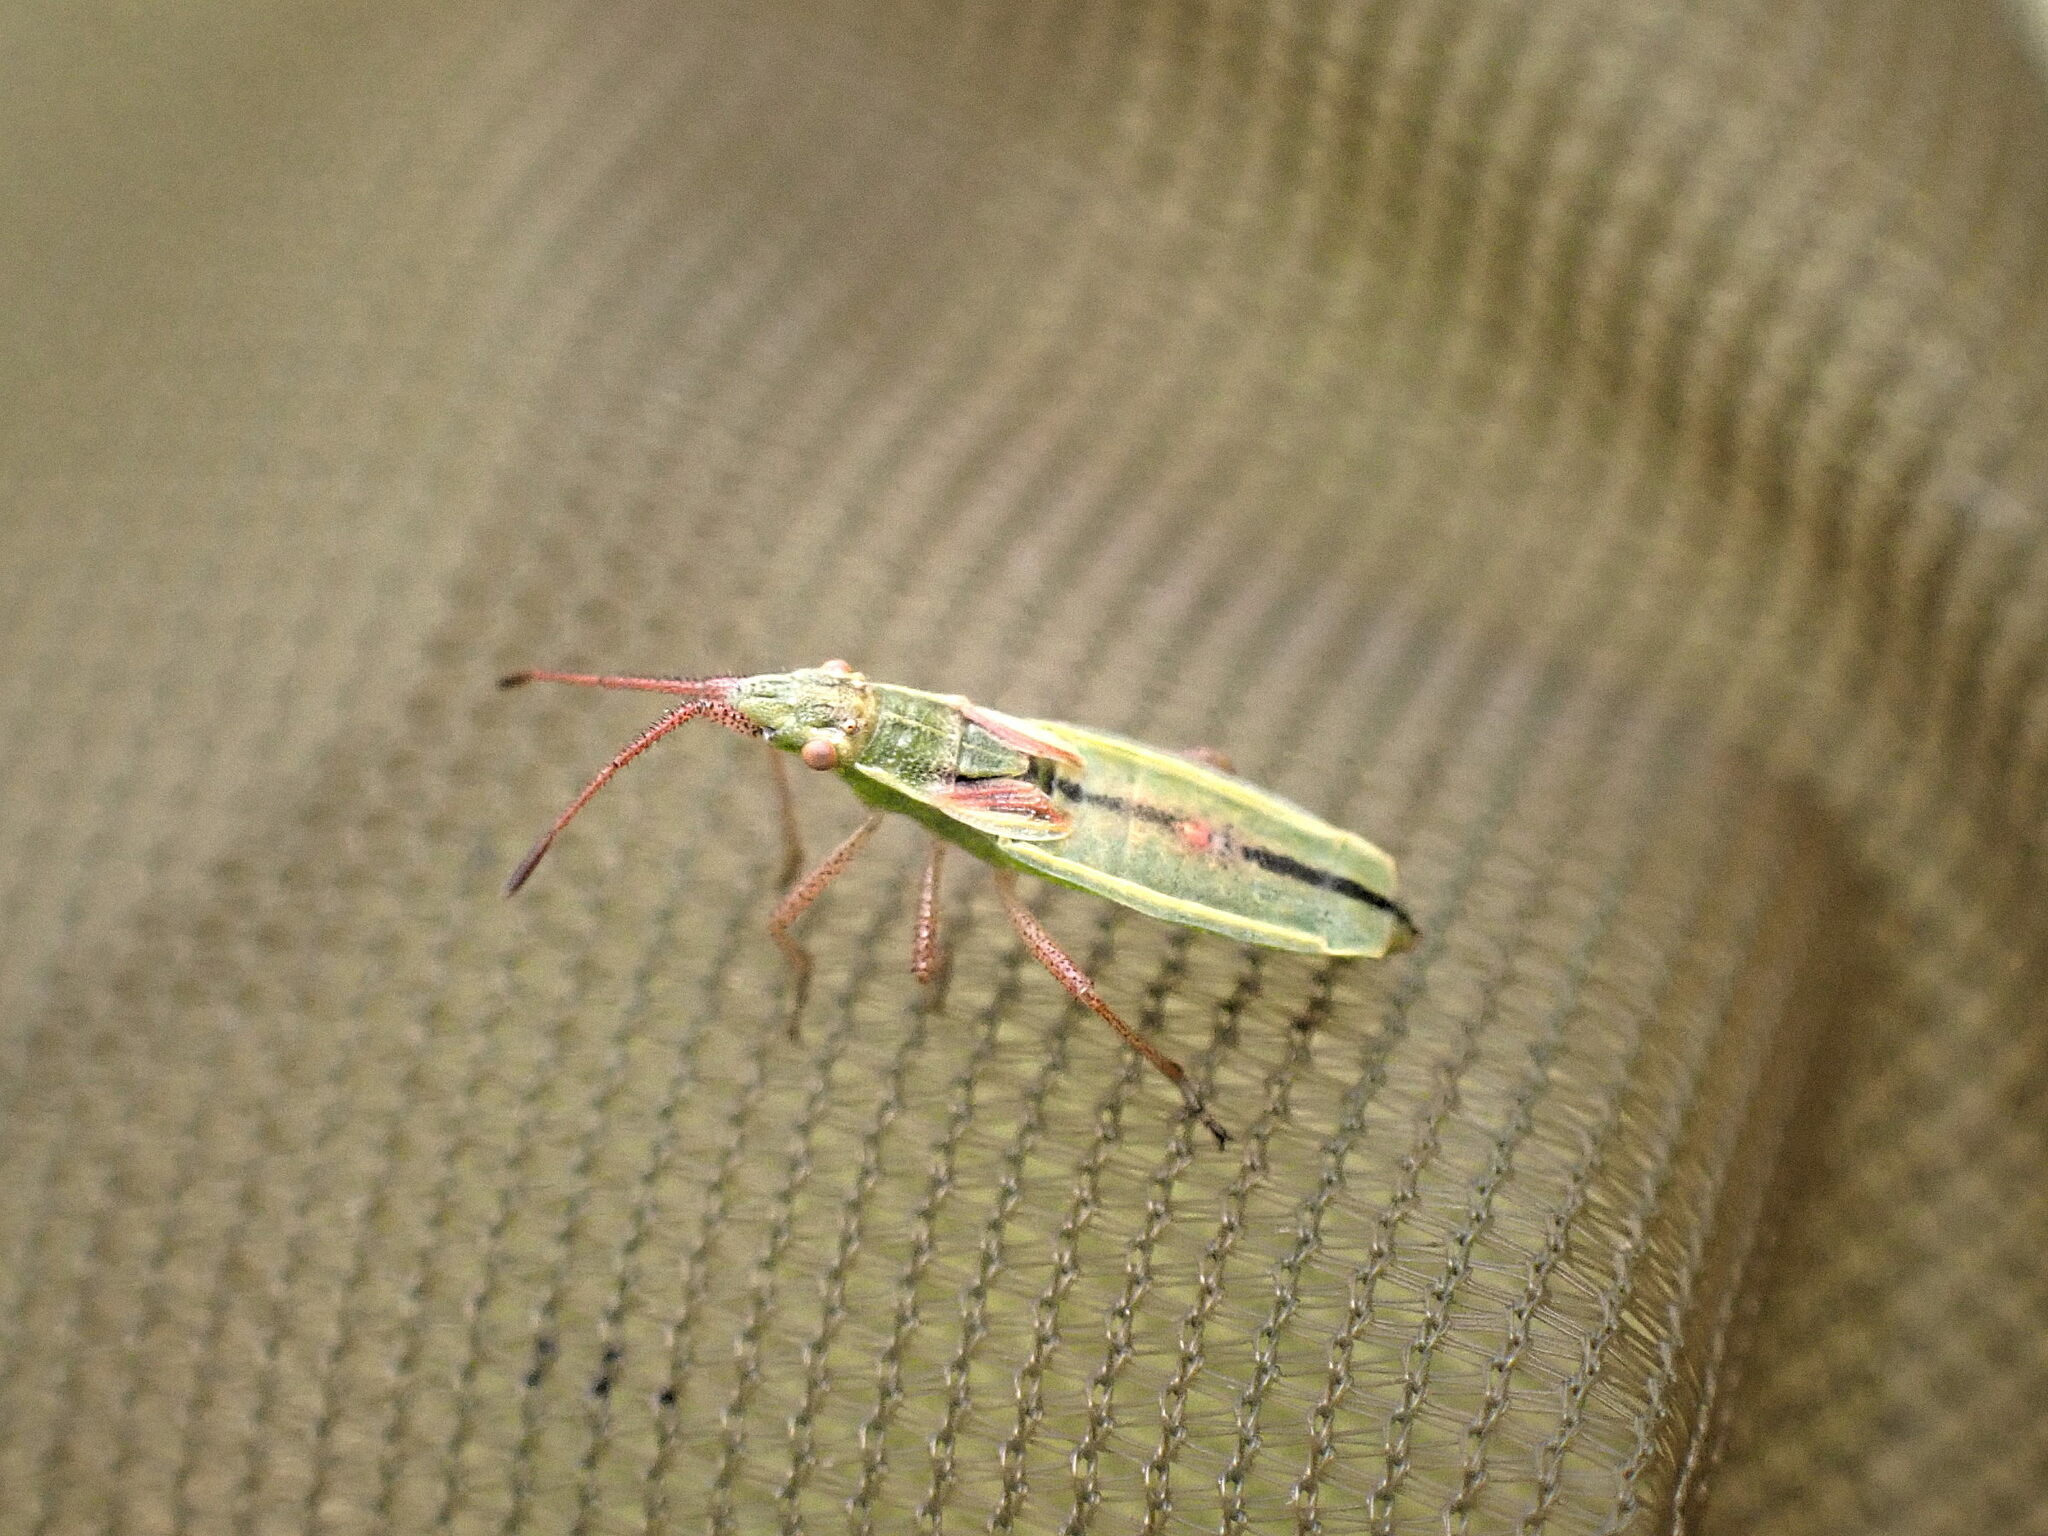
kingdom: Animalia
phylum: Arthropoda
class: Insecta
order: Hemiptera
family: Rhopalidae
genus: Myrmus
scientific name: Myrmus miriformis
